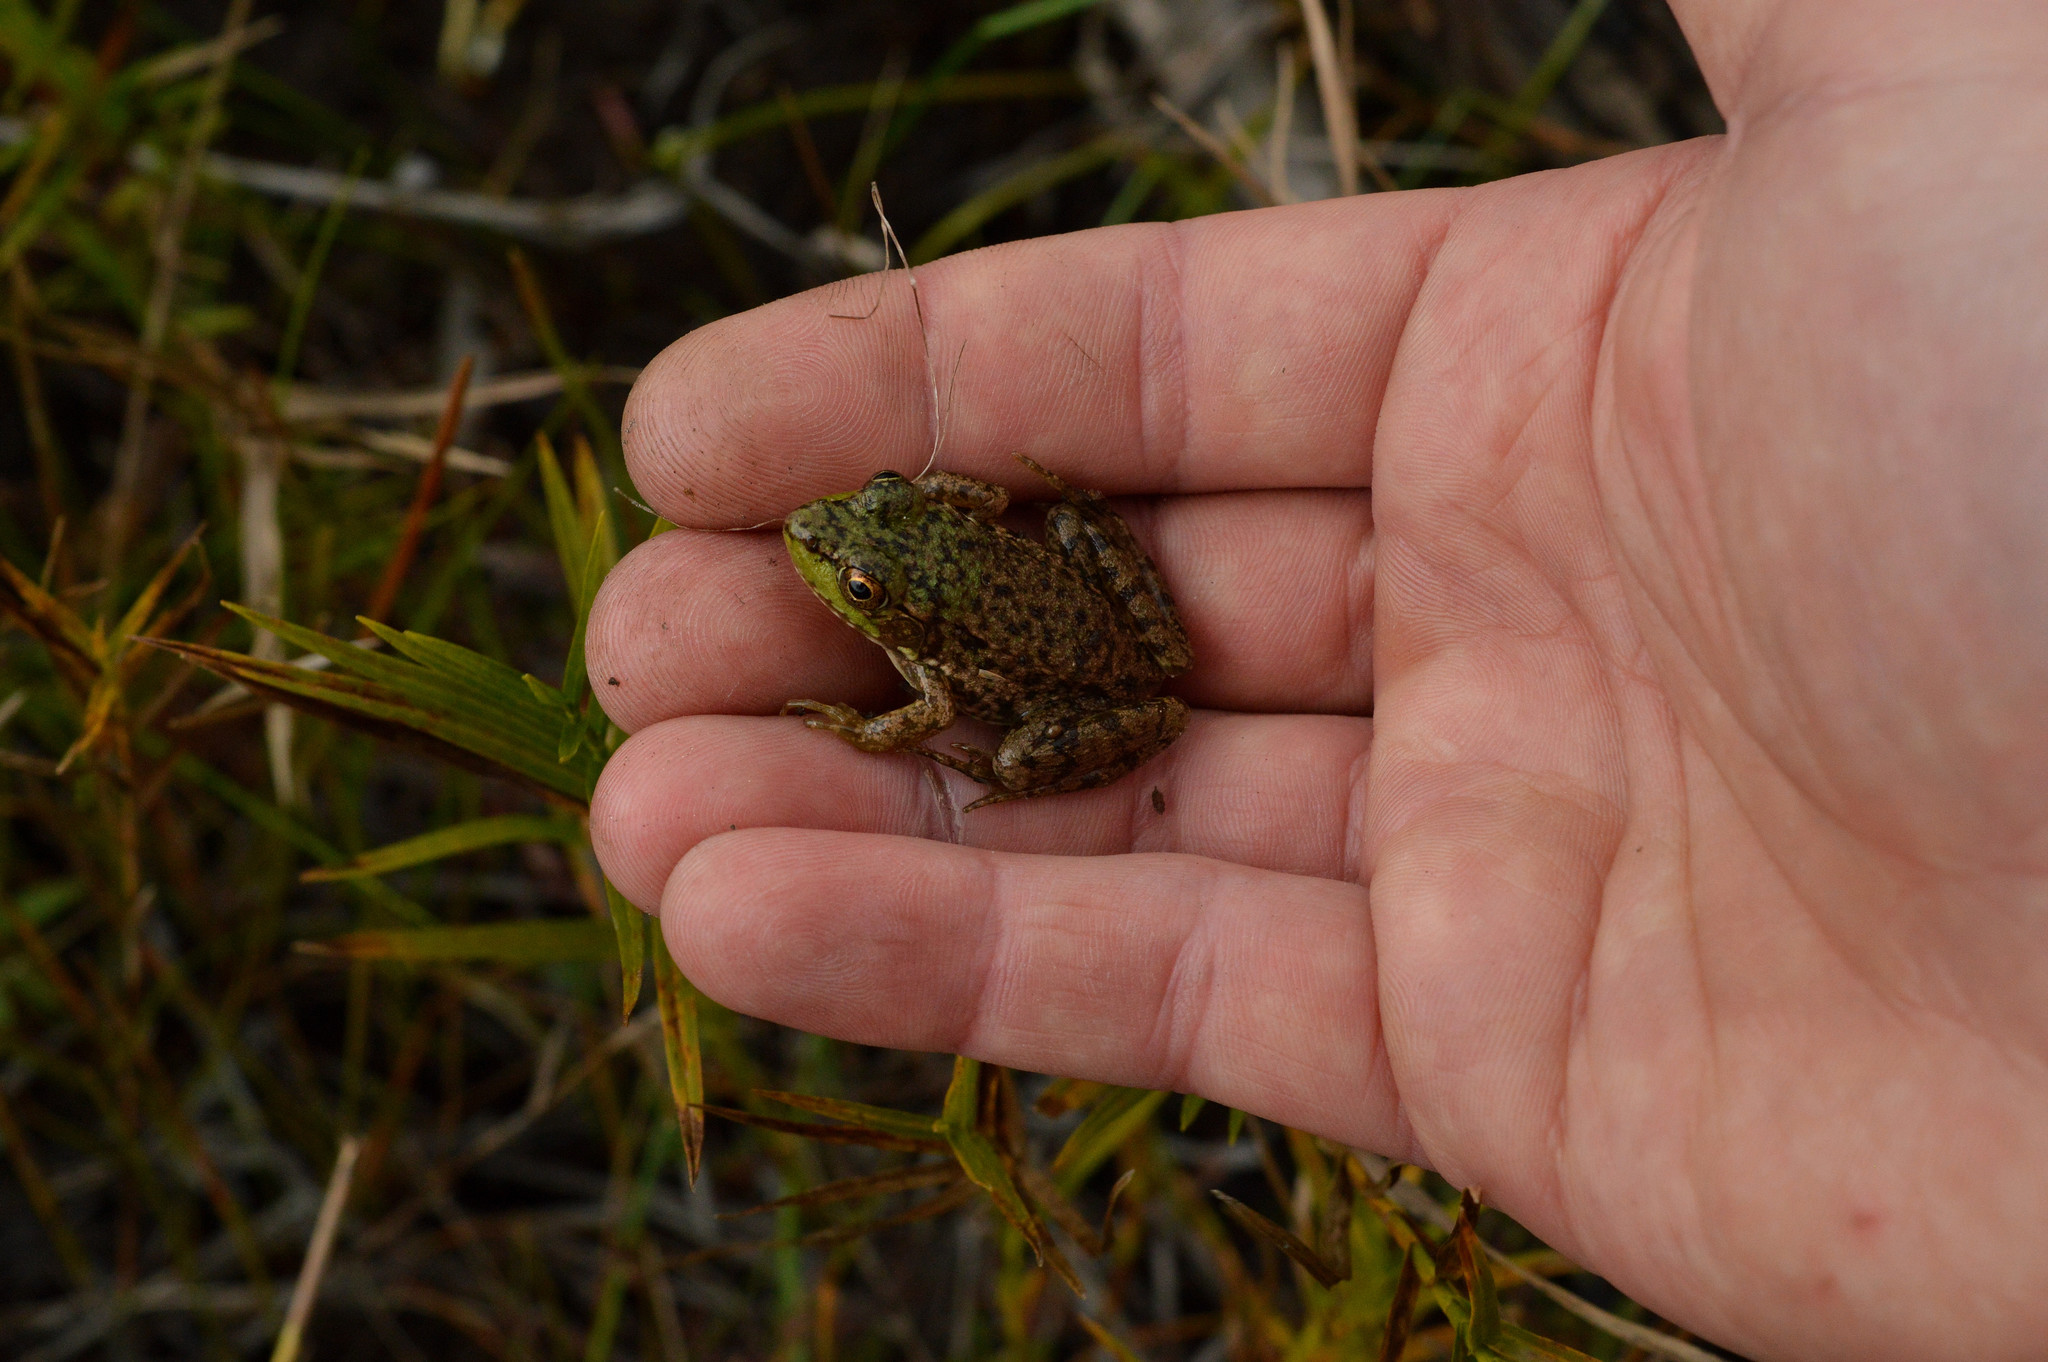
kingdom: Animalia
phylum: Chordata
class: Amphibia
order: Anura
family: Ranidae
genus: Lithobates
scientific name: Lithobates clamitans
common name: Green frog
